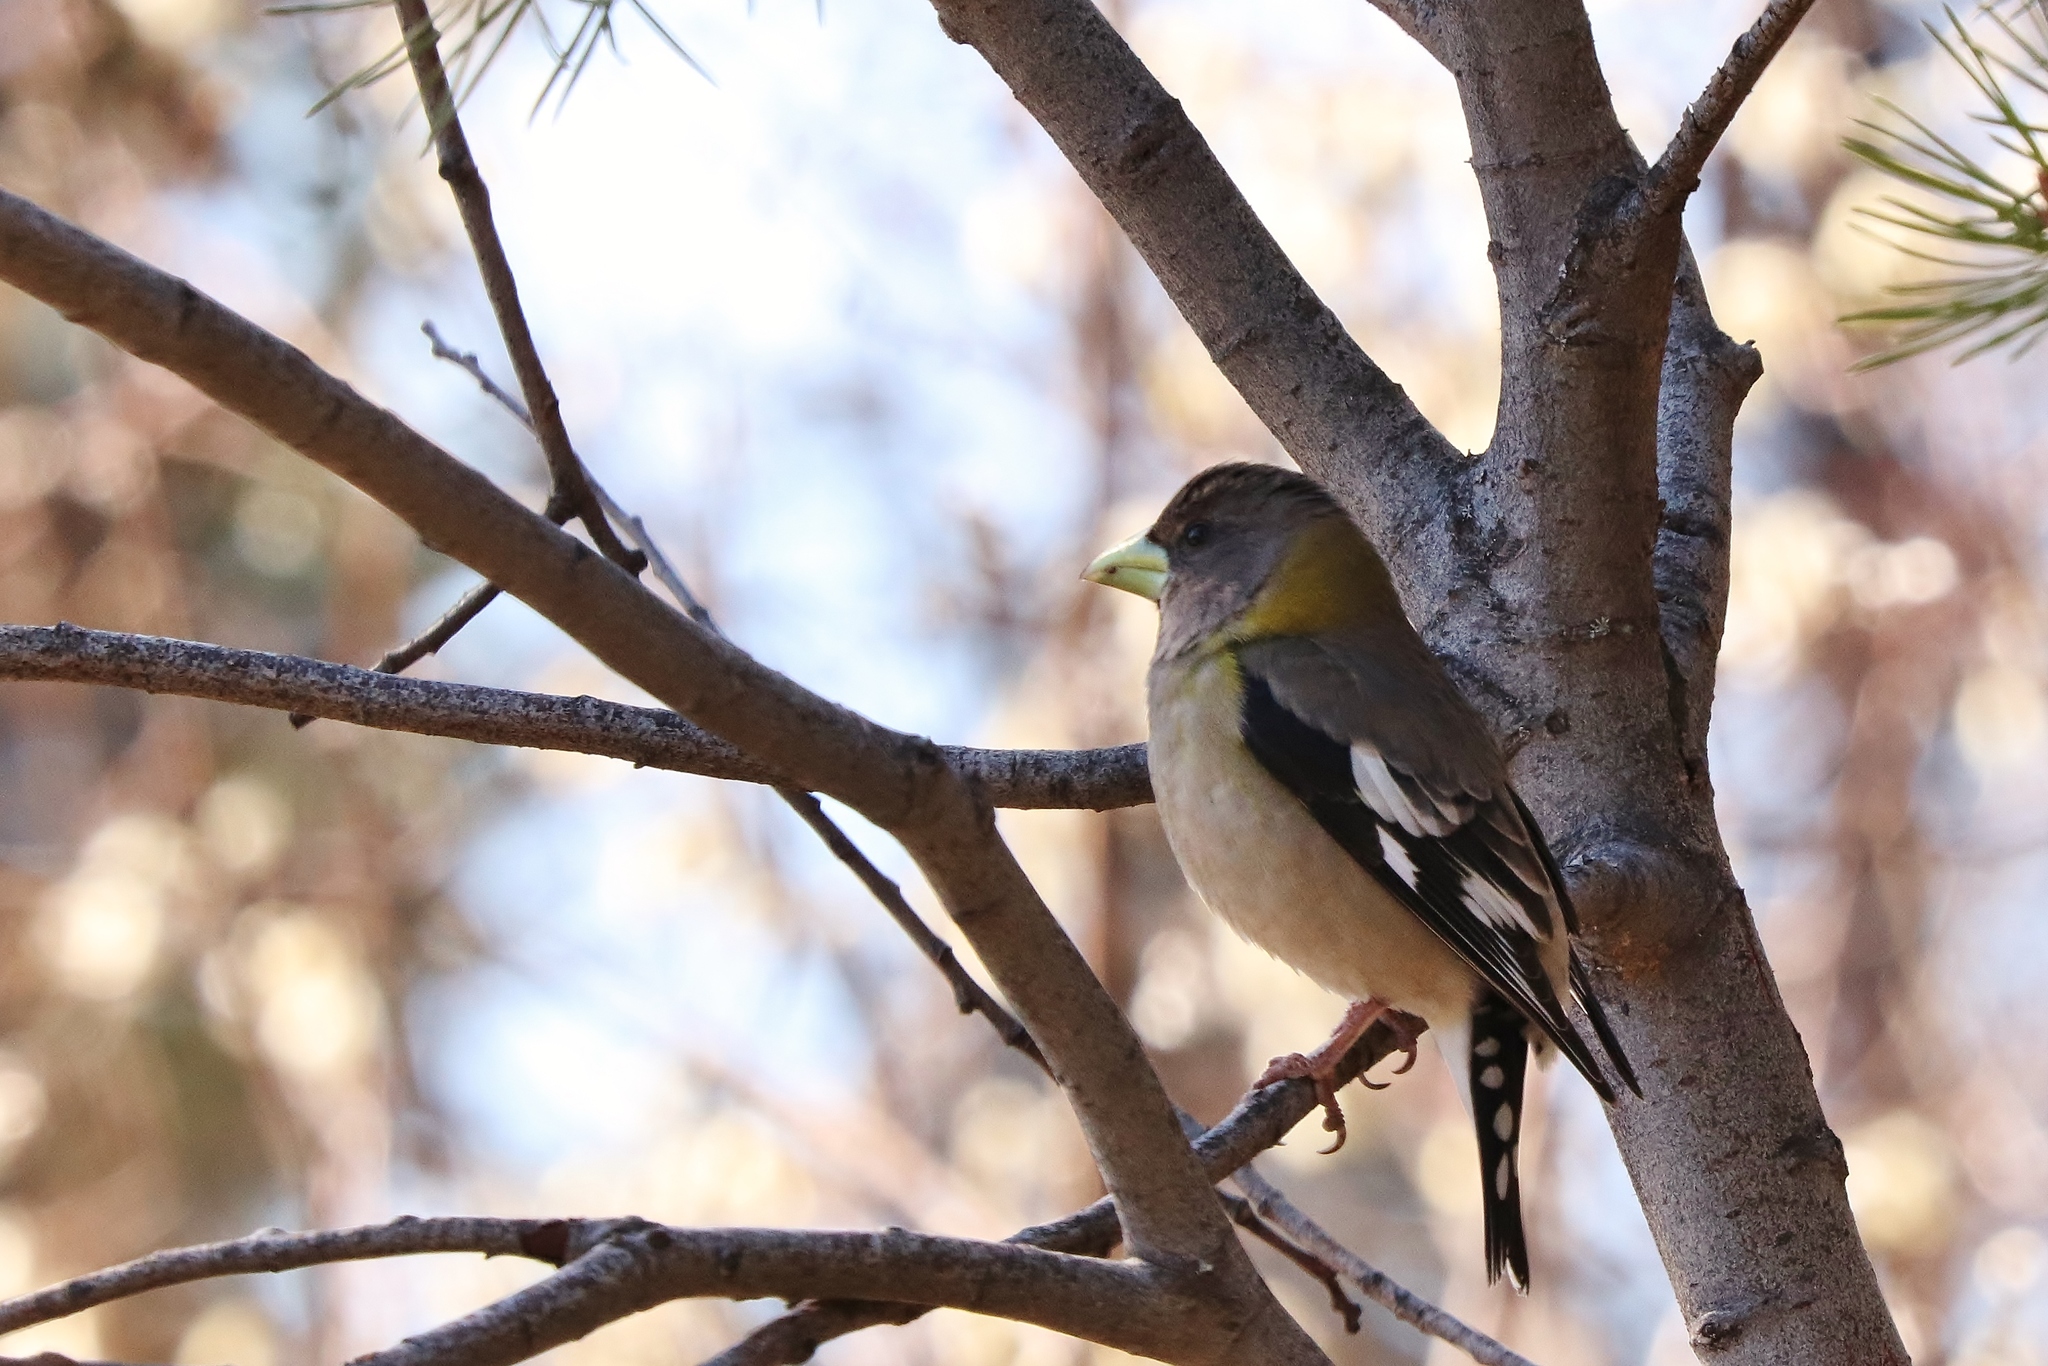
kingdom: Animalia
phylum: Chordata
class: Aves
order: Passeriformes
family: Fringillidae
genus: Hesperiphona
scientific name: Hesperiphona vespertina
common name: Evening grosbeak
